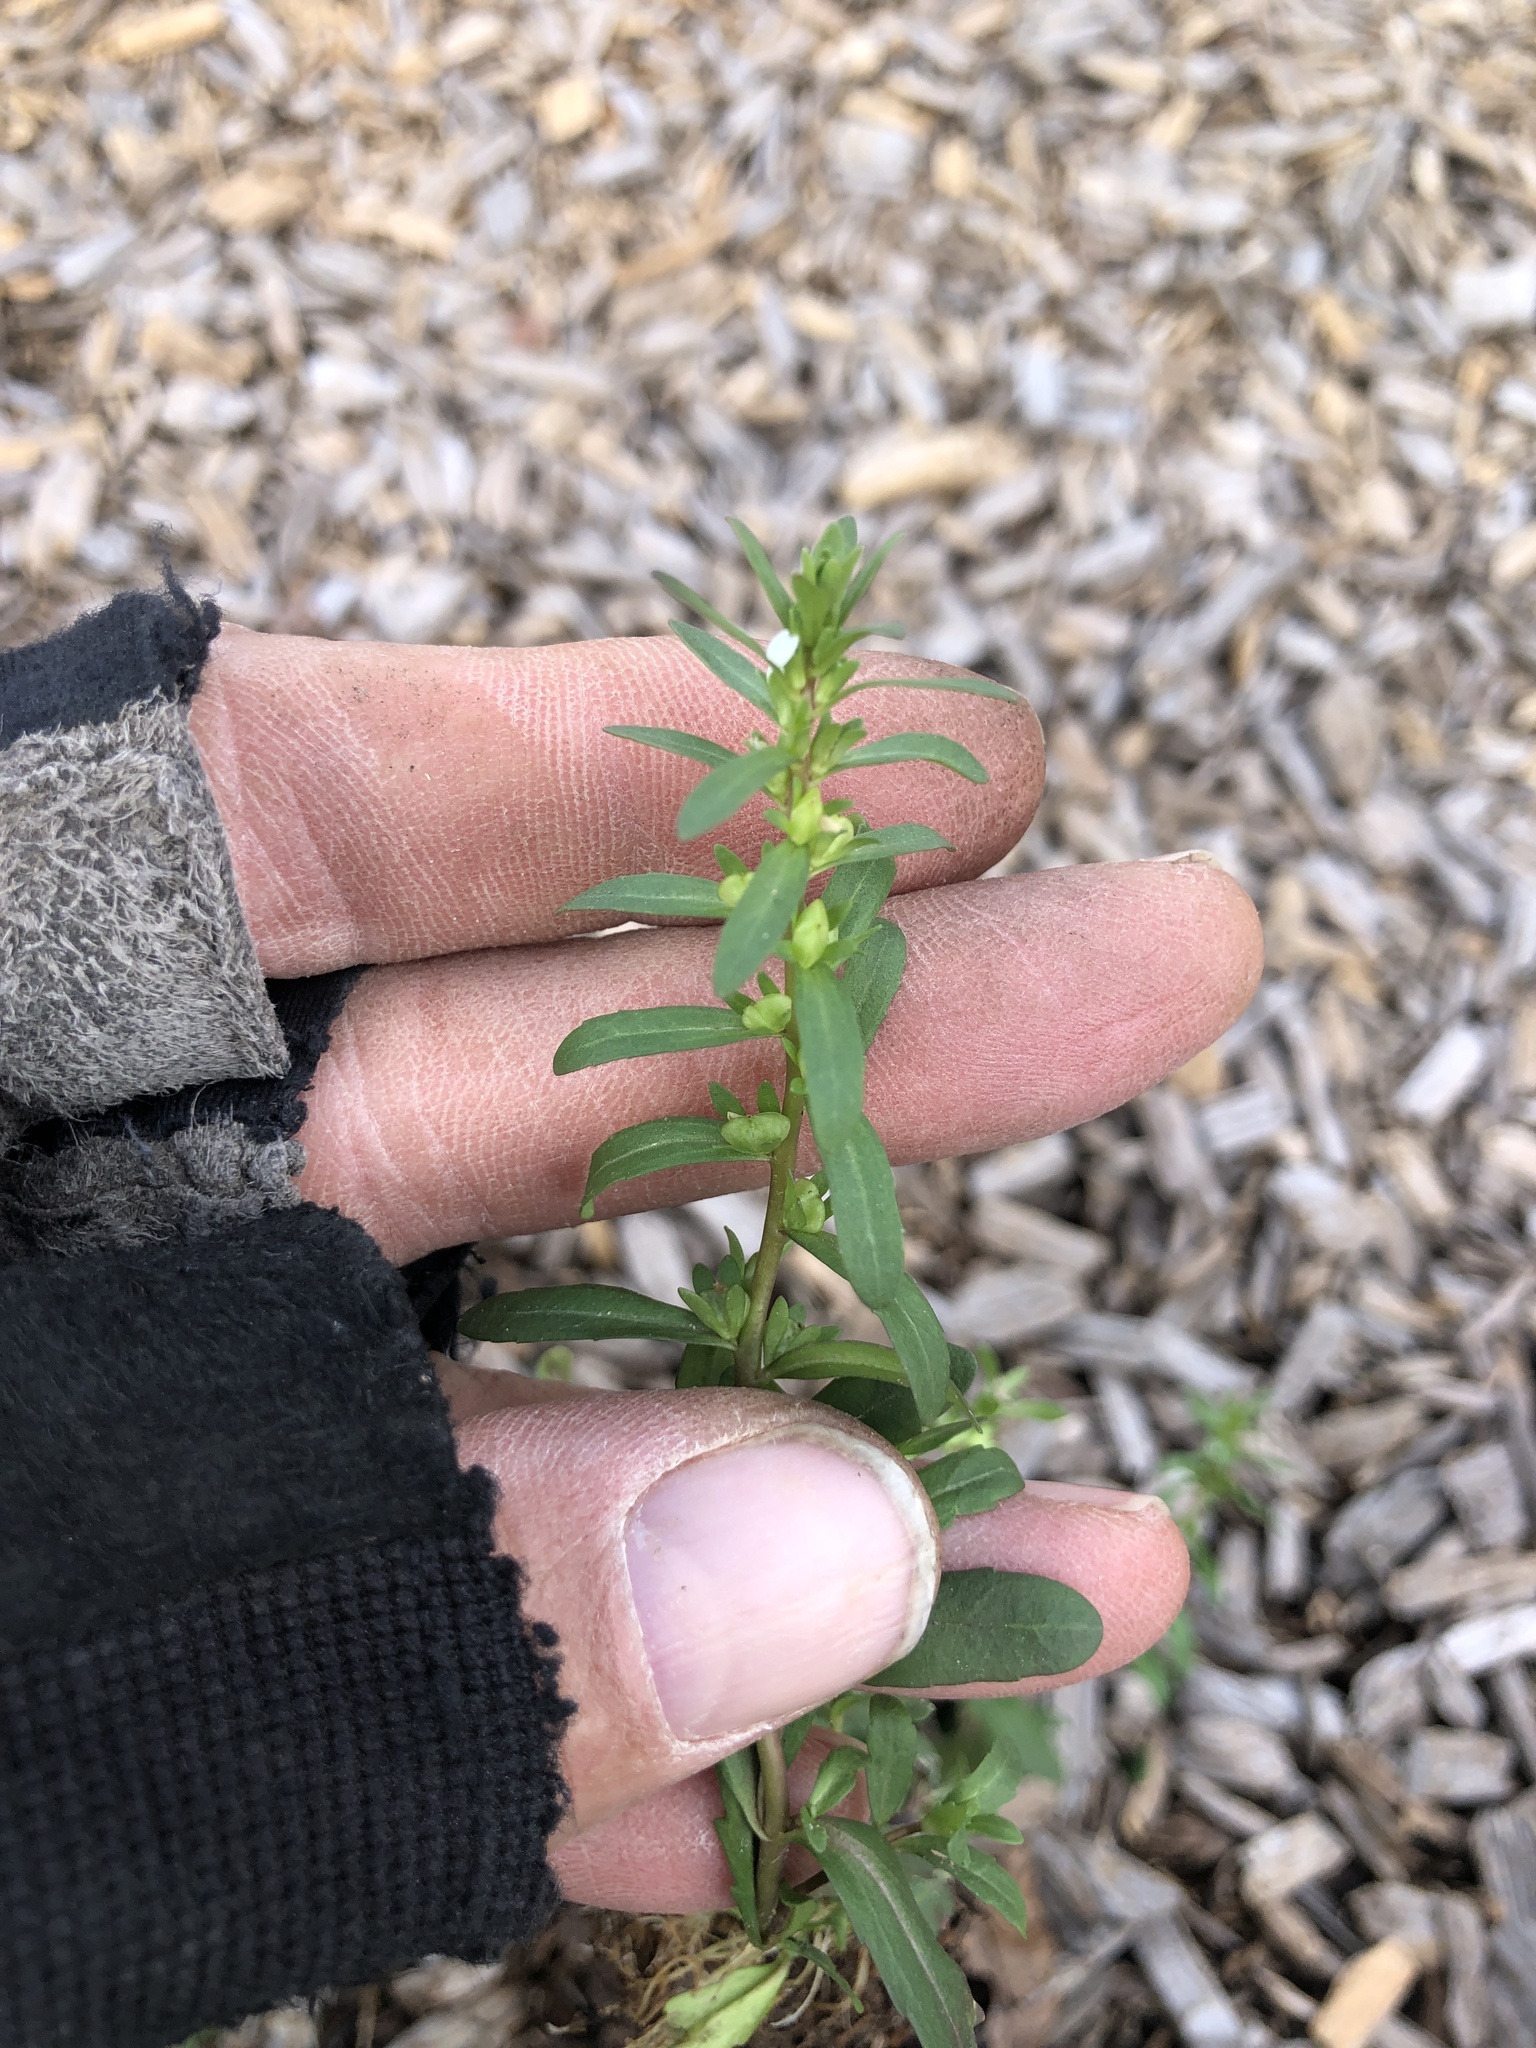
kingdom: Plantae
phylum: Tracheophyta
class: Magnoliopsida
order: Lamiales
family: Plantaginaceae
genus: Veronica
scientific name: Veronica peregrina
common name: Neckweed
